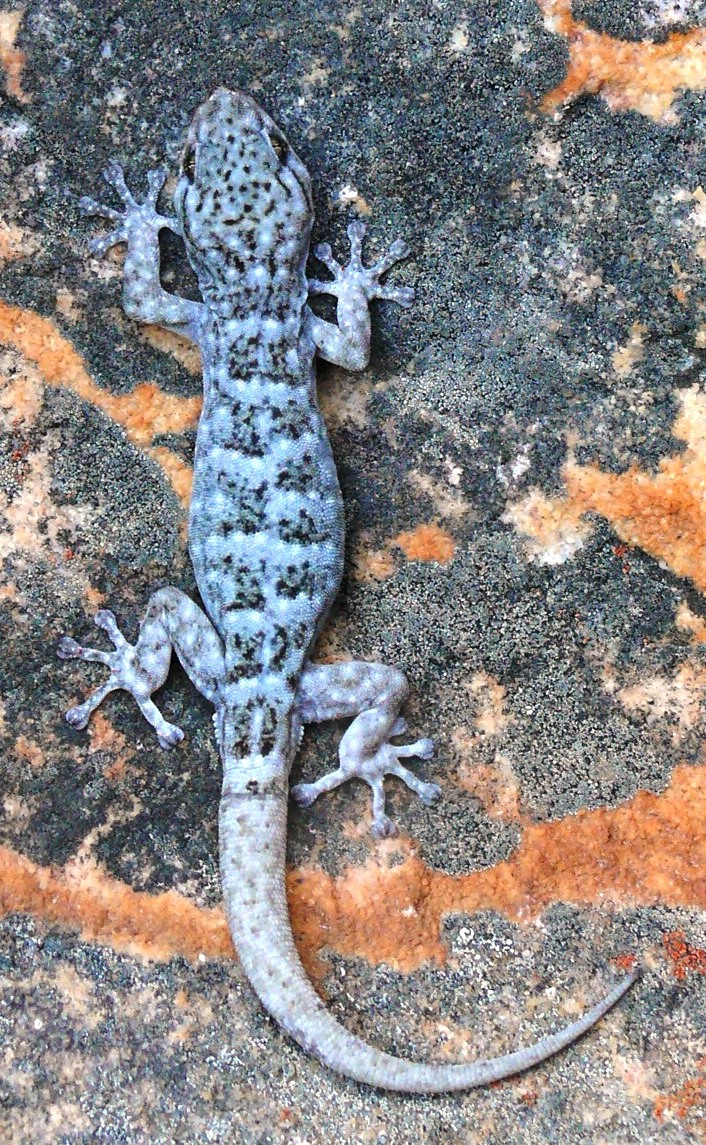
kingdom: Animalia
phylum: Chordata
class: Squamata
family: Gekkonidae
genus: Goggia
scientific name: Goggia microlepidota
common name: Small-scaled leaf-toed lecko
